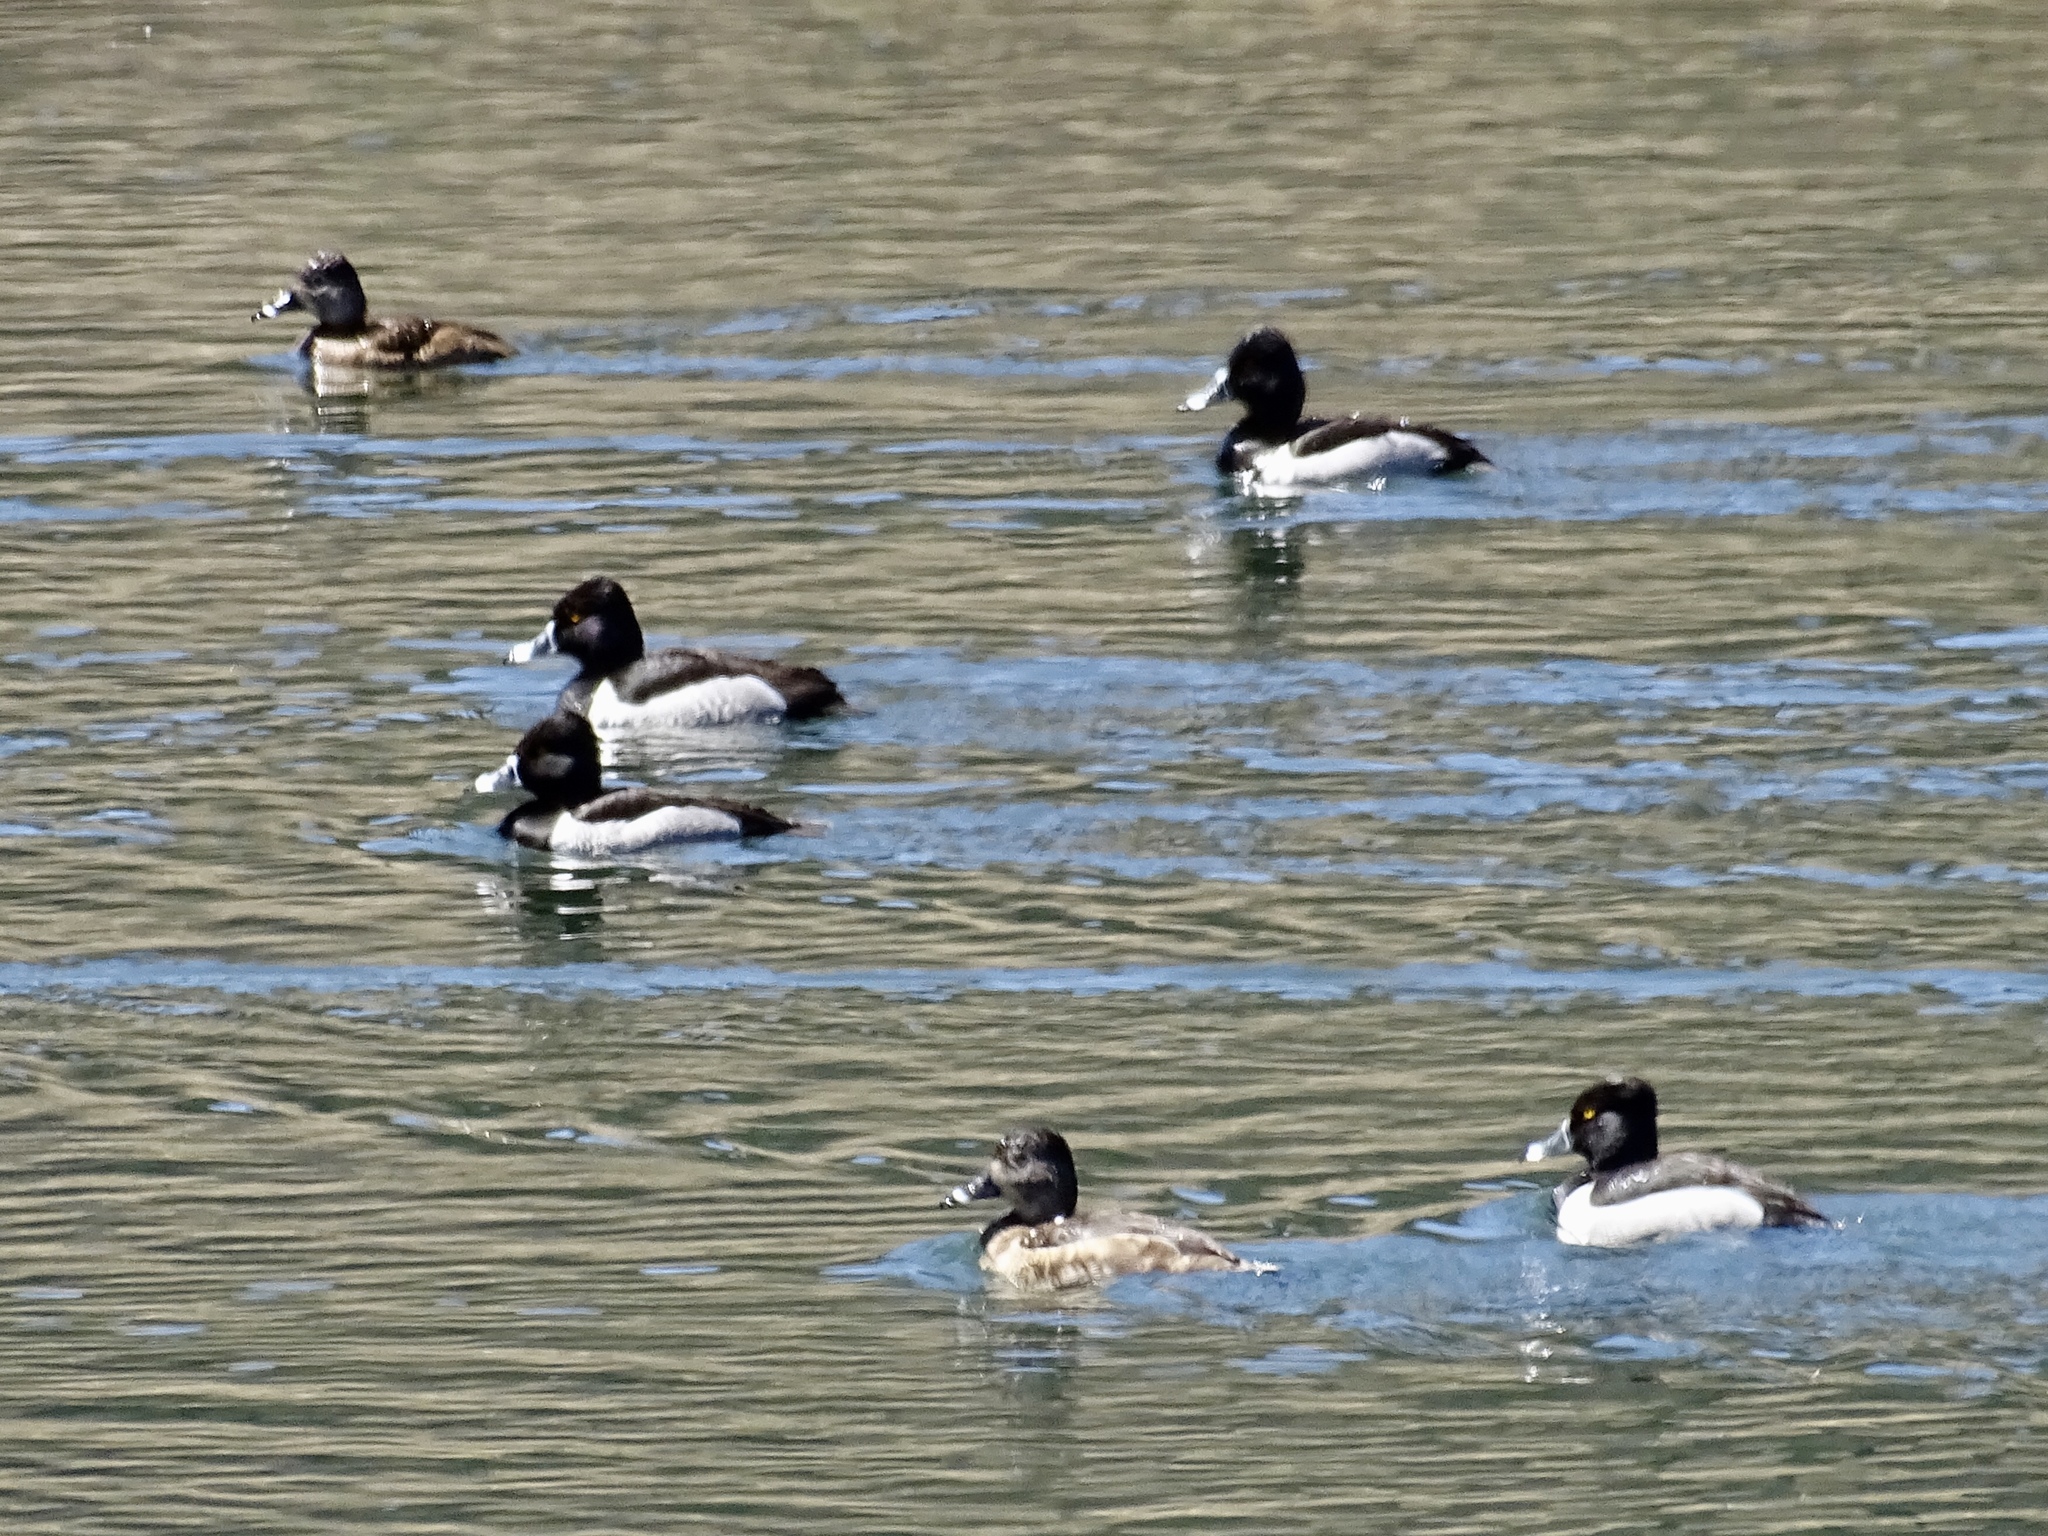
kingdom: Animalia
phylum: Chordata
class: Aves
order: Anseriformes
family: Anatidae
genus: Aythya
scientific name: Aythya collaris
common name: Ring-necked duck
